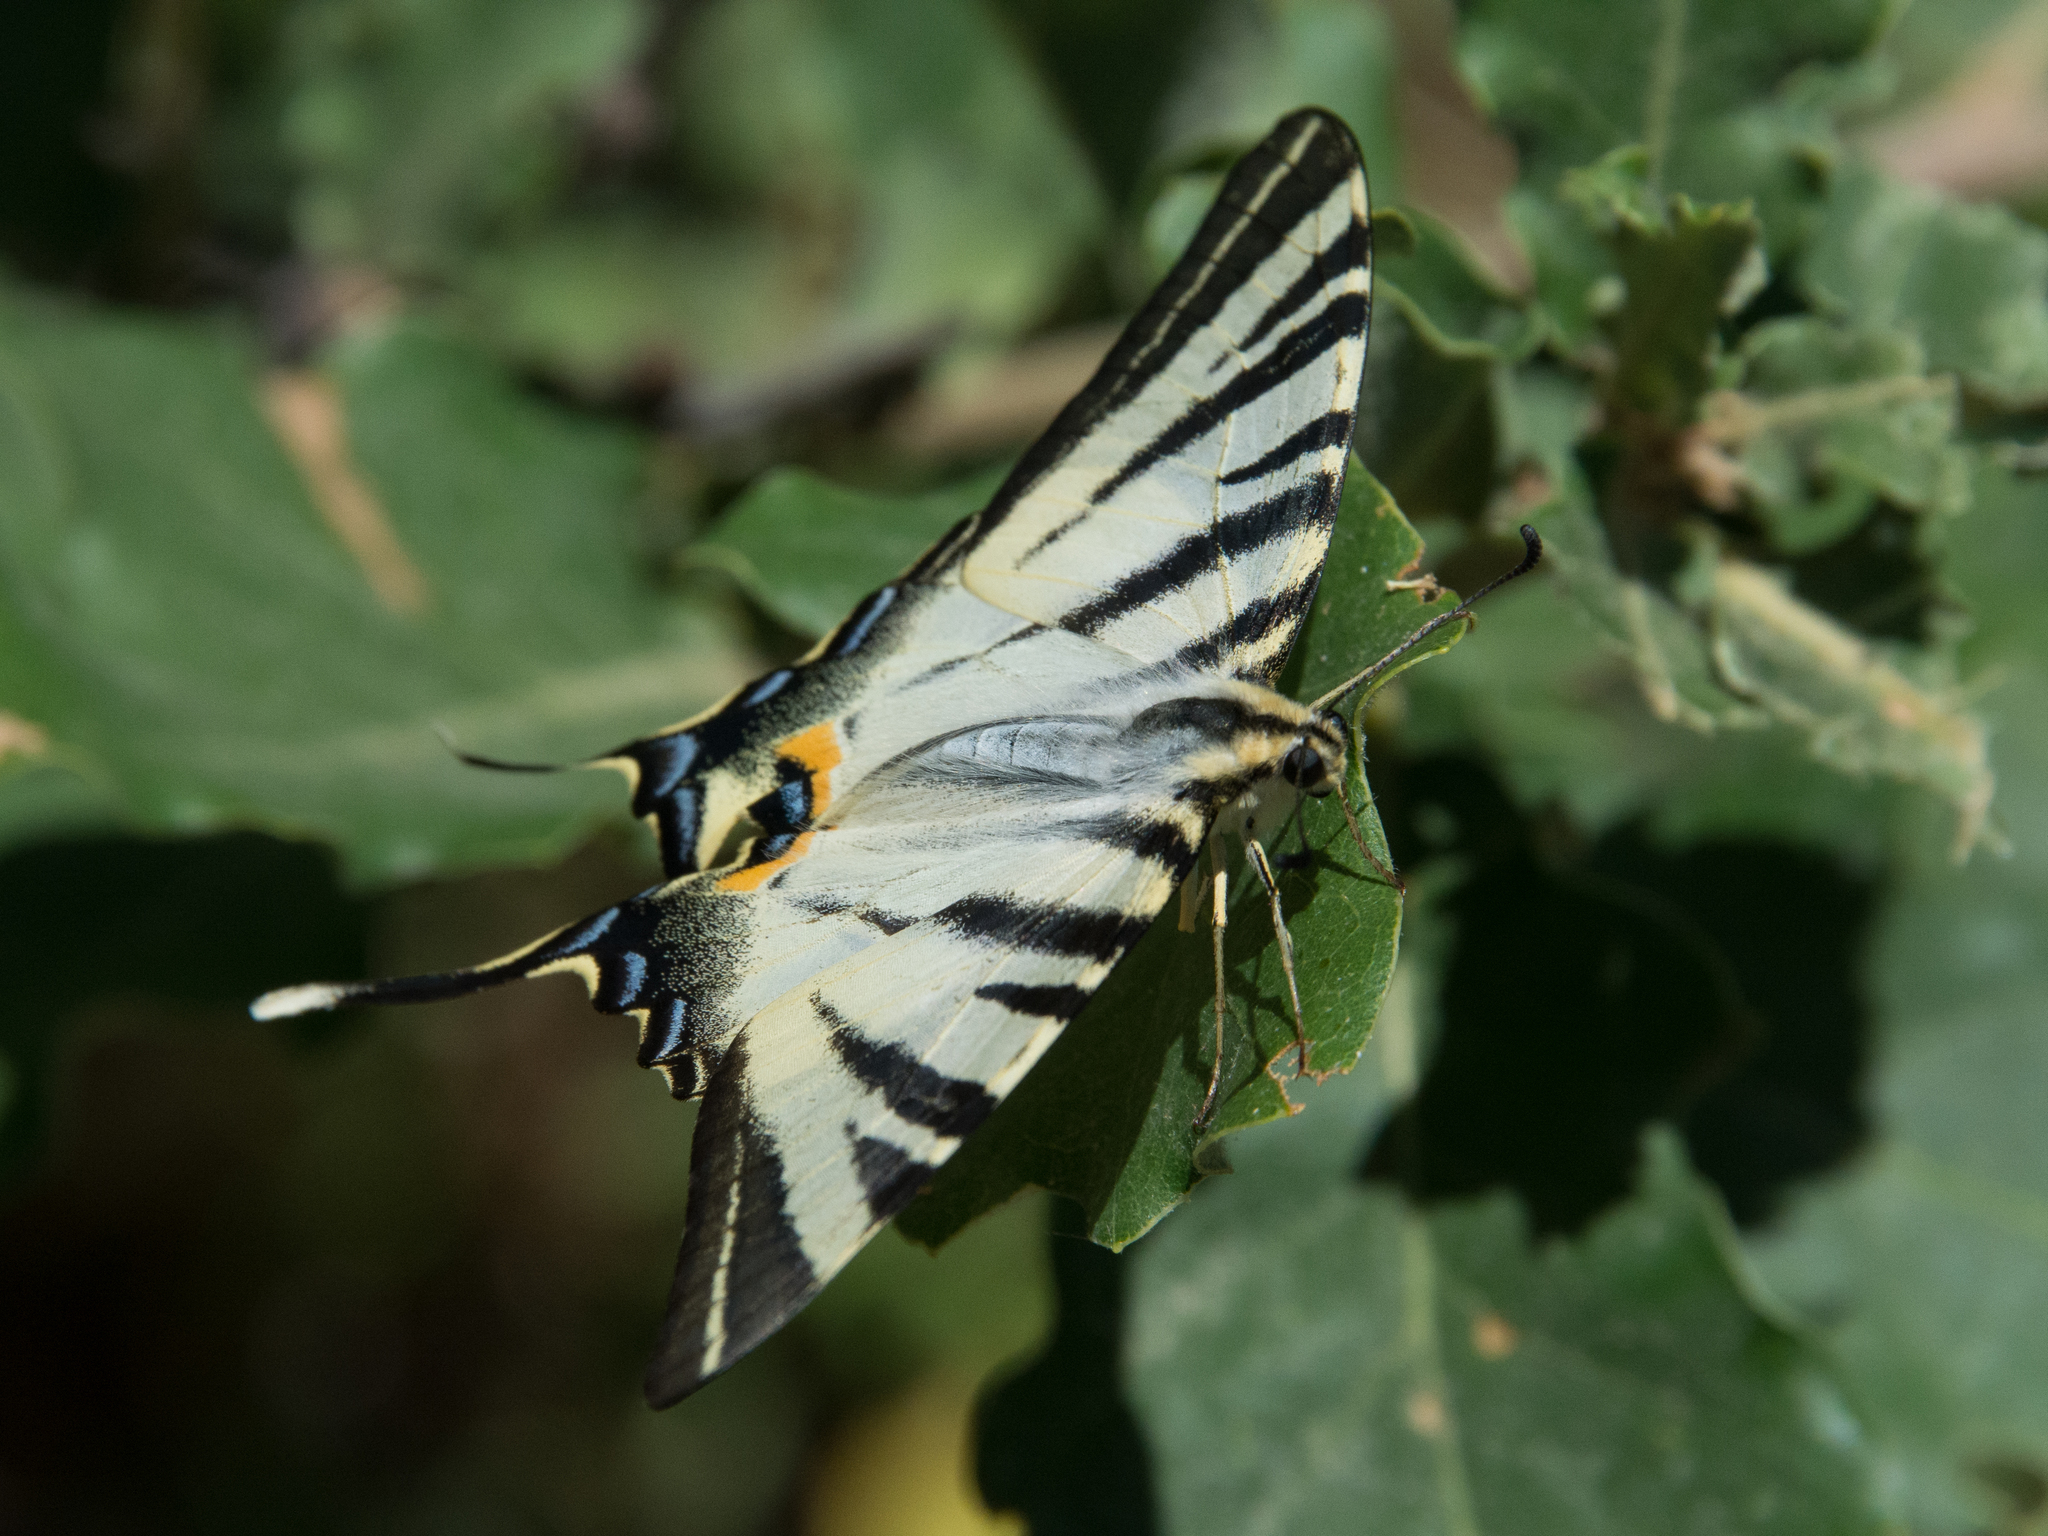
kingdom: Animalia
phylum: Arthropoda
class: Insecta
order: Lepidoptera
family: Papilionidae
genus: Iphiclides
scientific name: Iphiclides podalirius
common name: Scarce swallowtail
